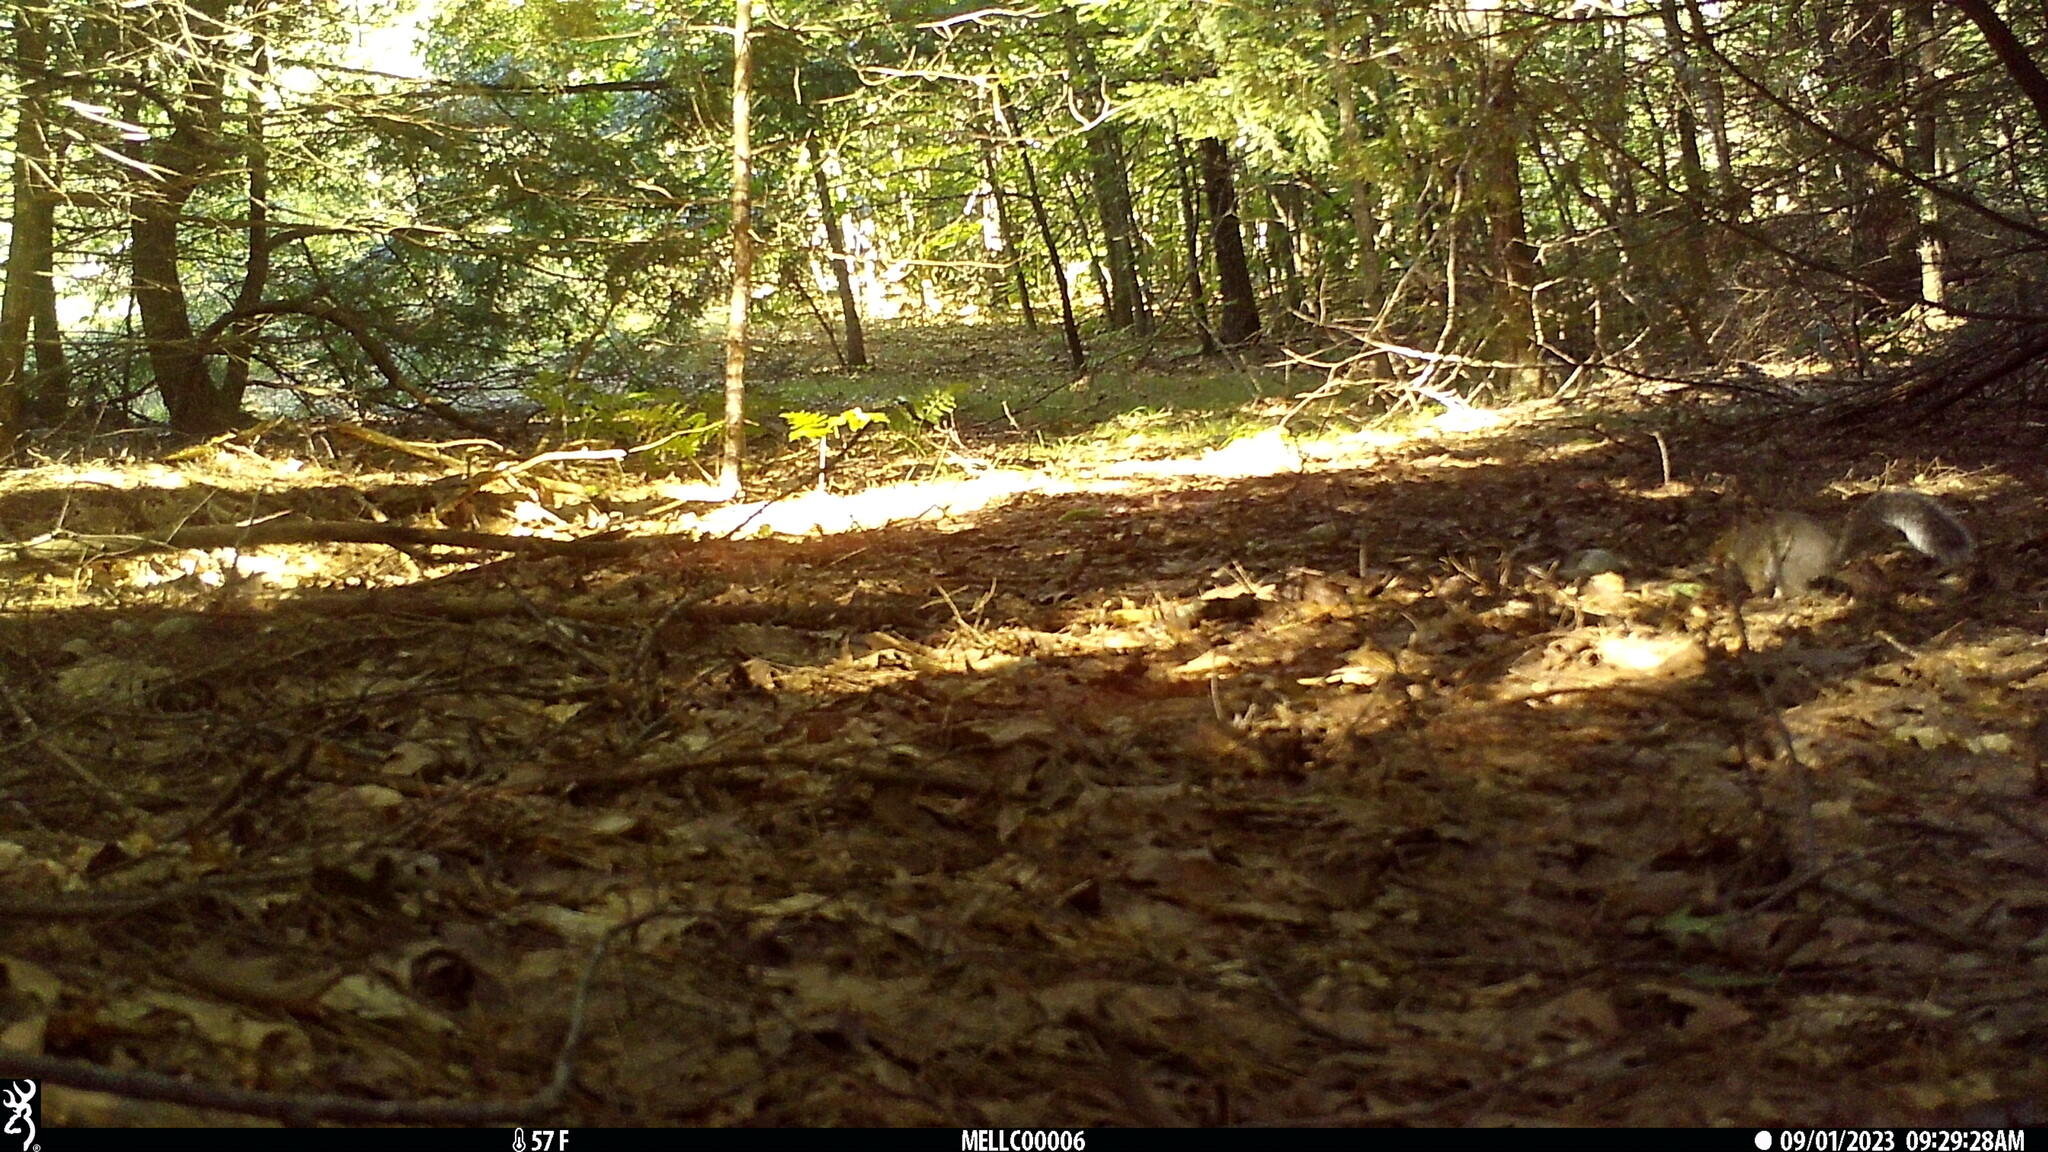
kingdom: Animalia
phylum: Chordata
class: Mammalia
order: Rodentia
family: Sciuridae
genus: Sciurus
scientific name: Sciurus carolinensis
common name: Eastern gray squirrel
